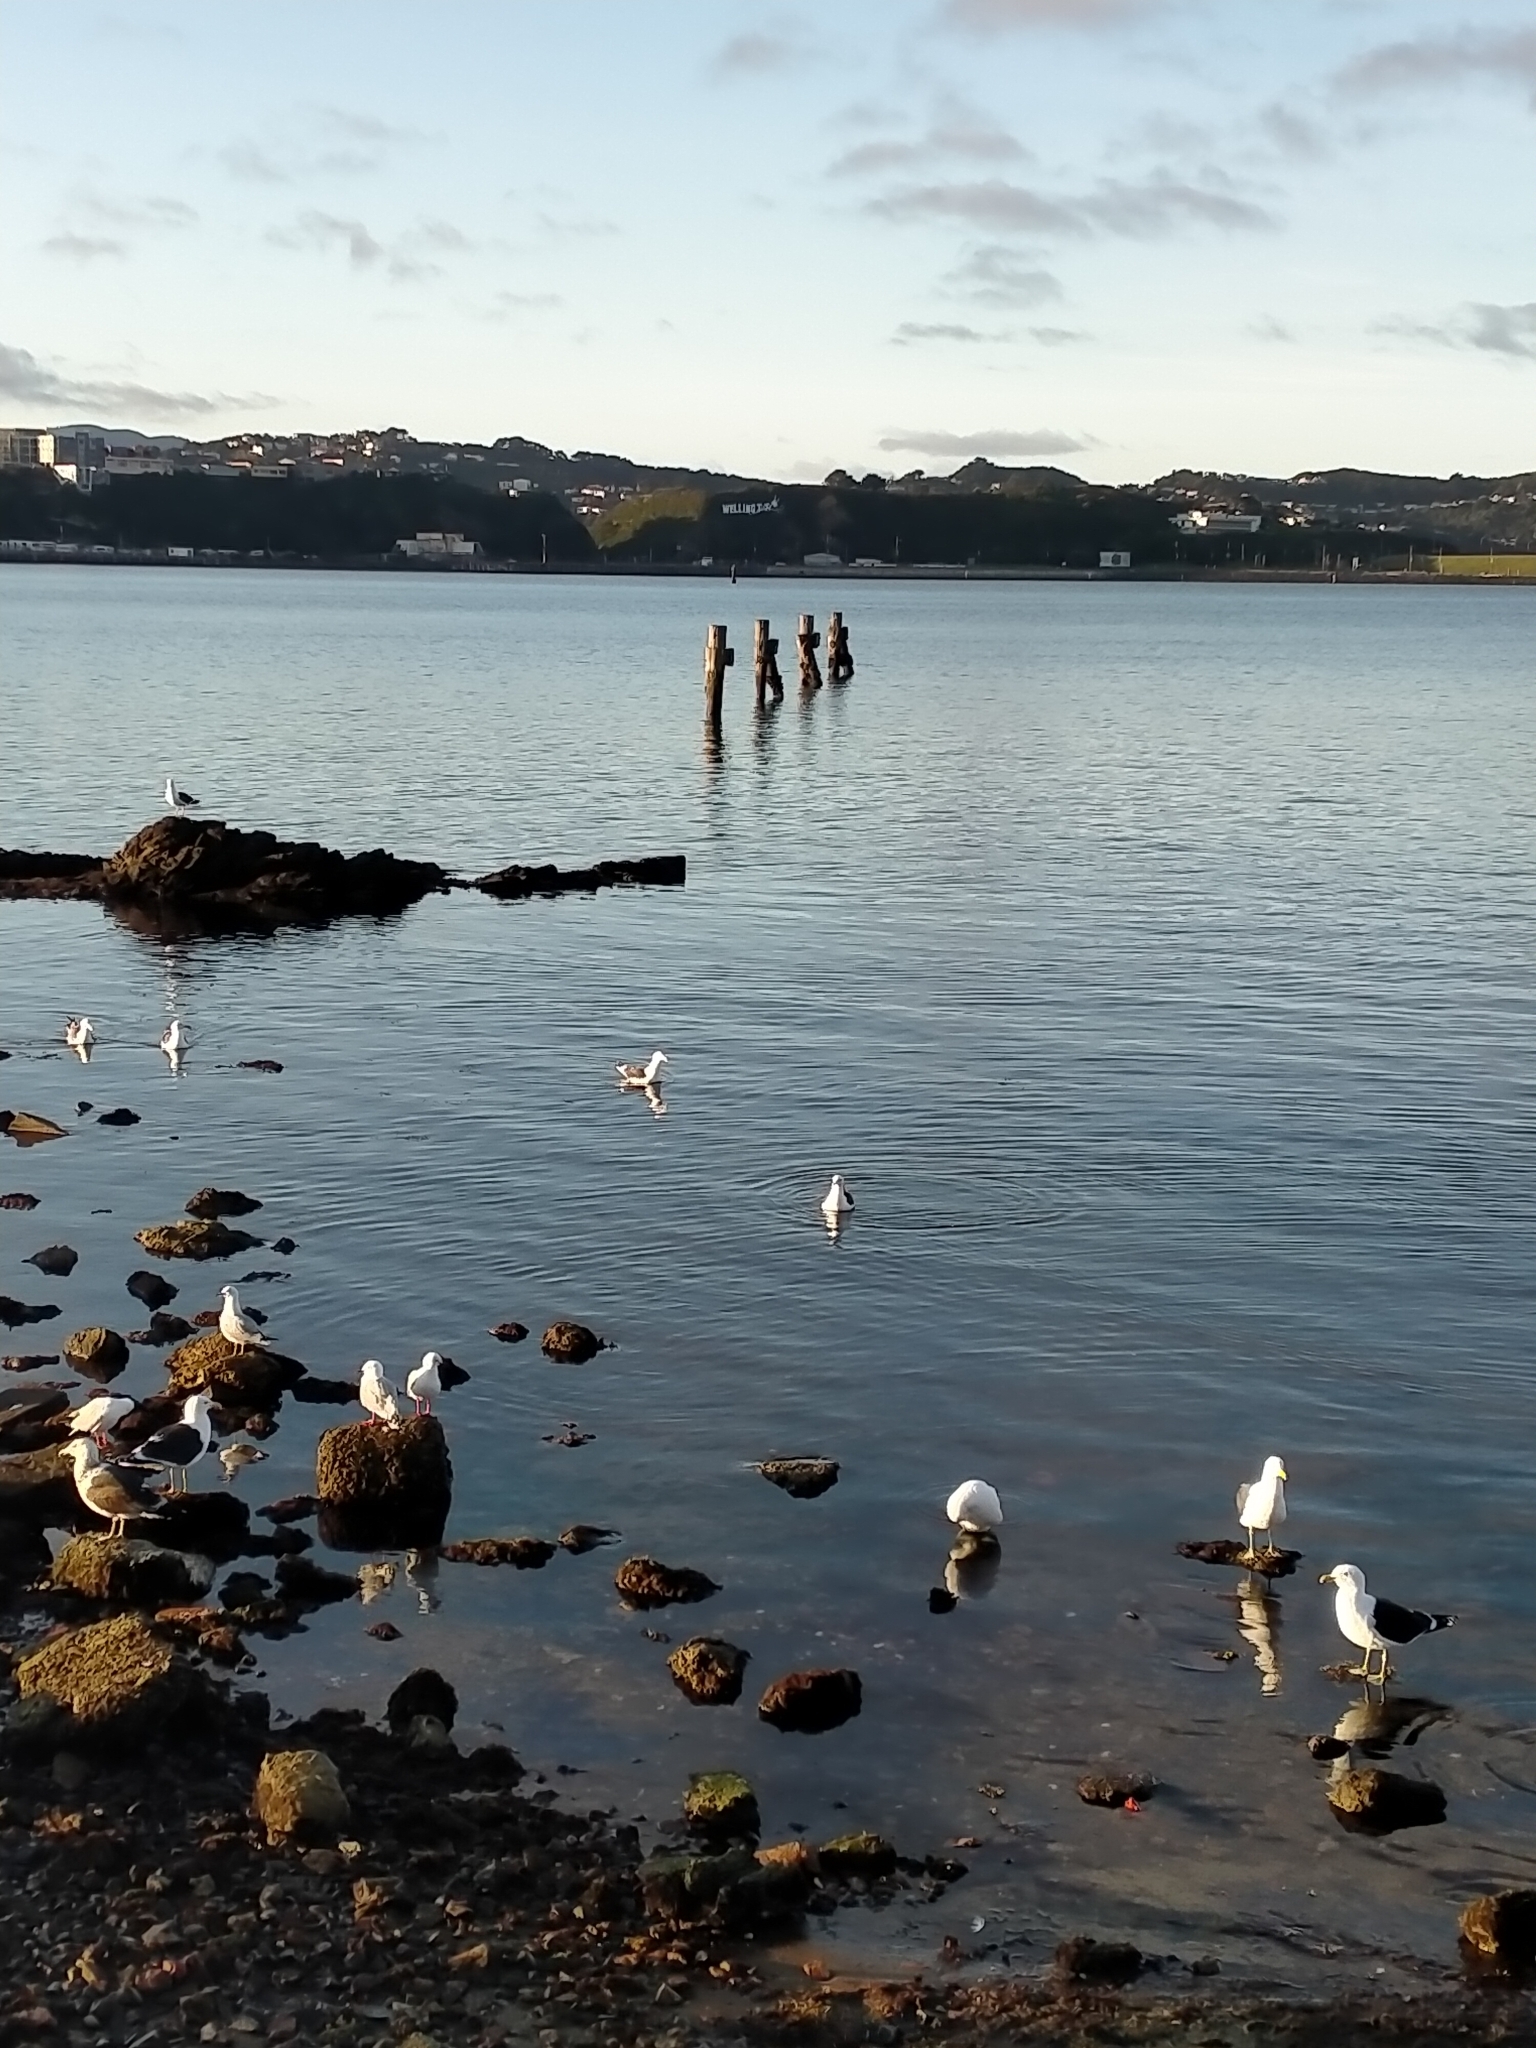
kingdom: Animalia
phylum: Chordata
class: Aves
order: Charadriiformes
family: Laridae
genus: Larus
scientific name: Larus dominicanus
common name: Kelp gull
